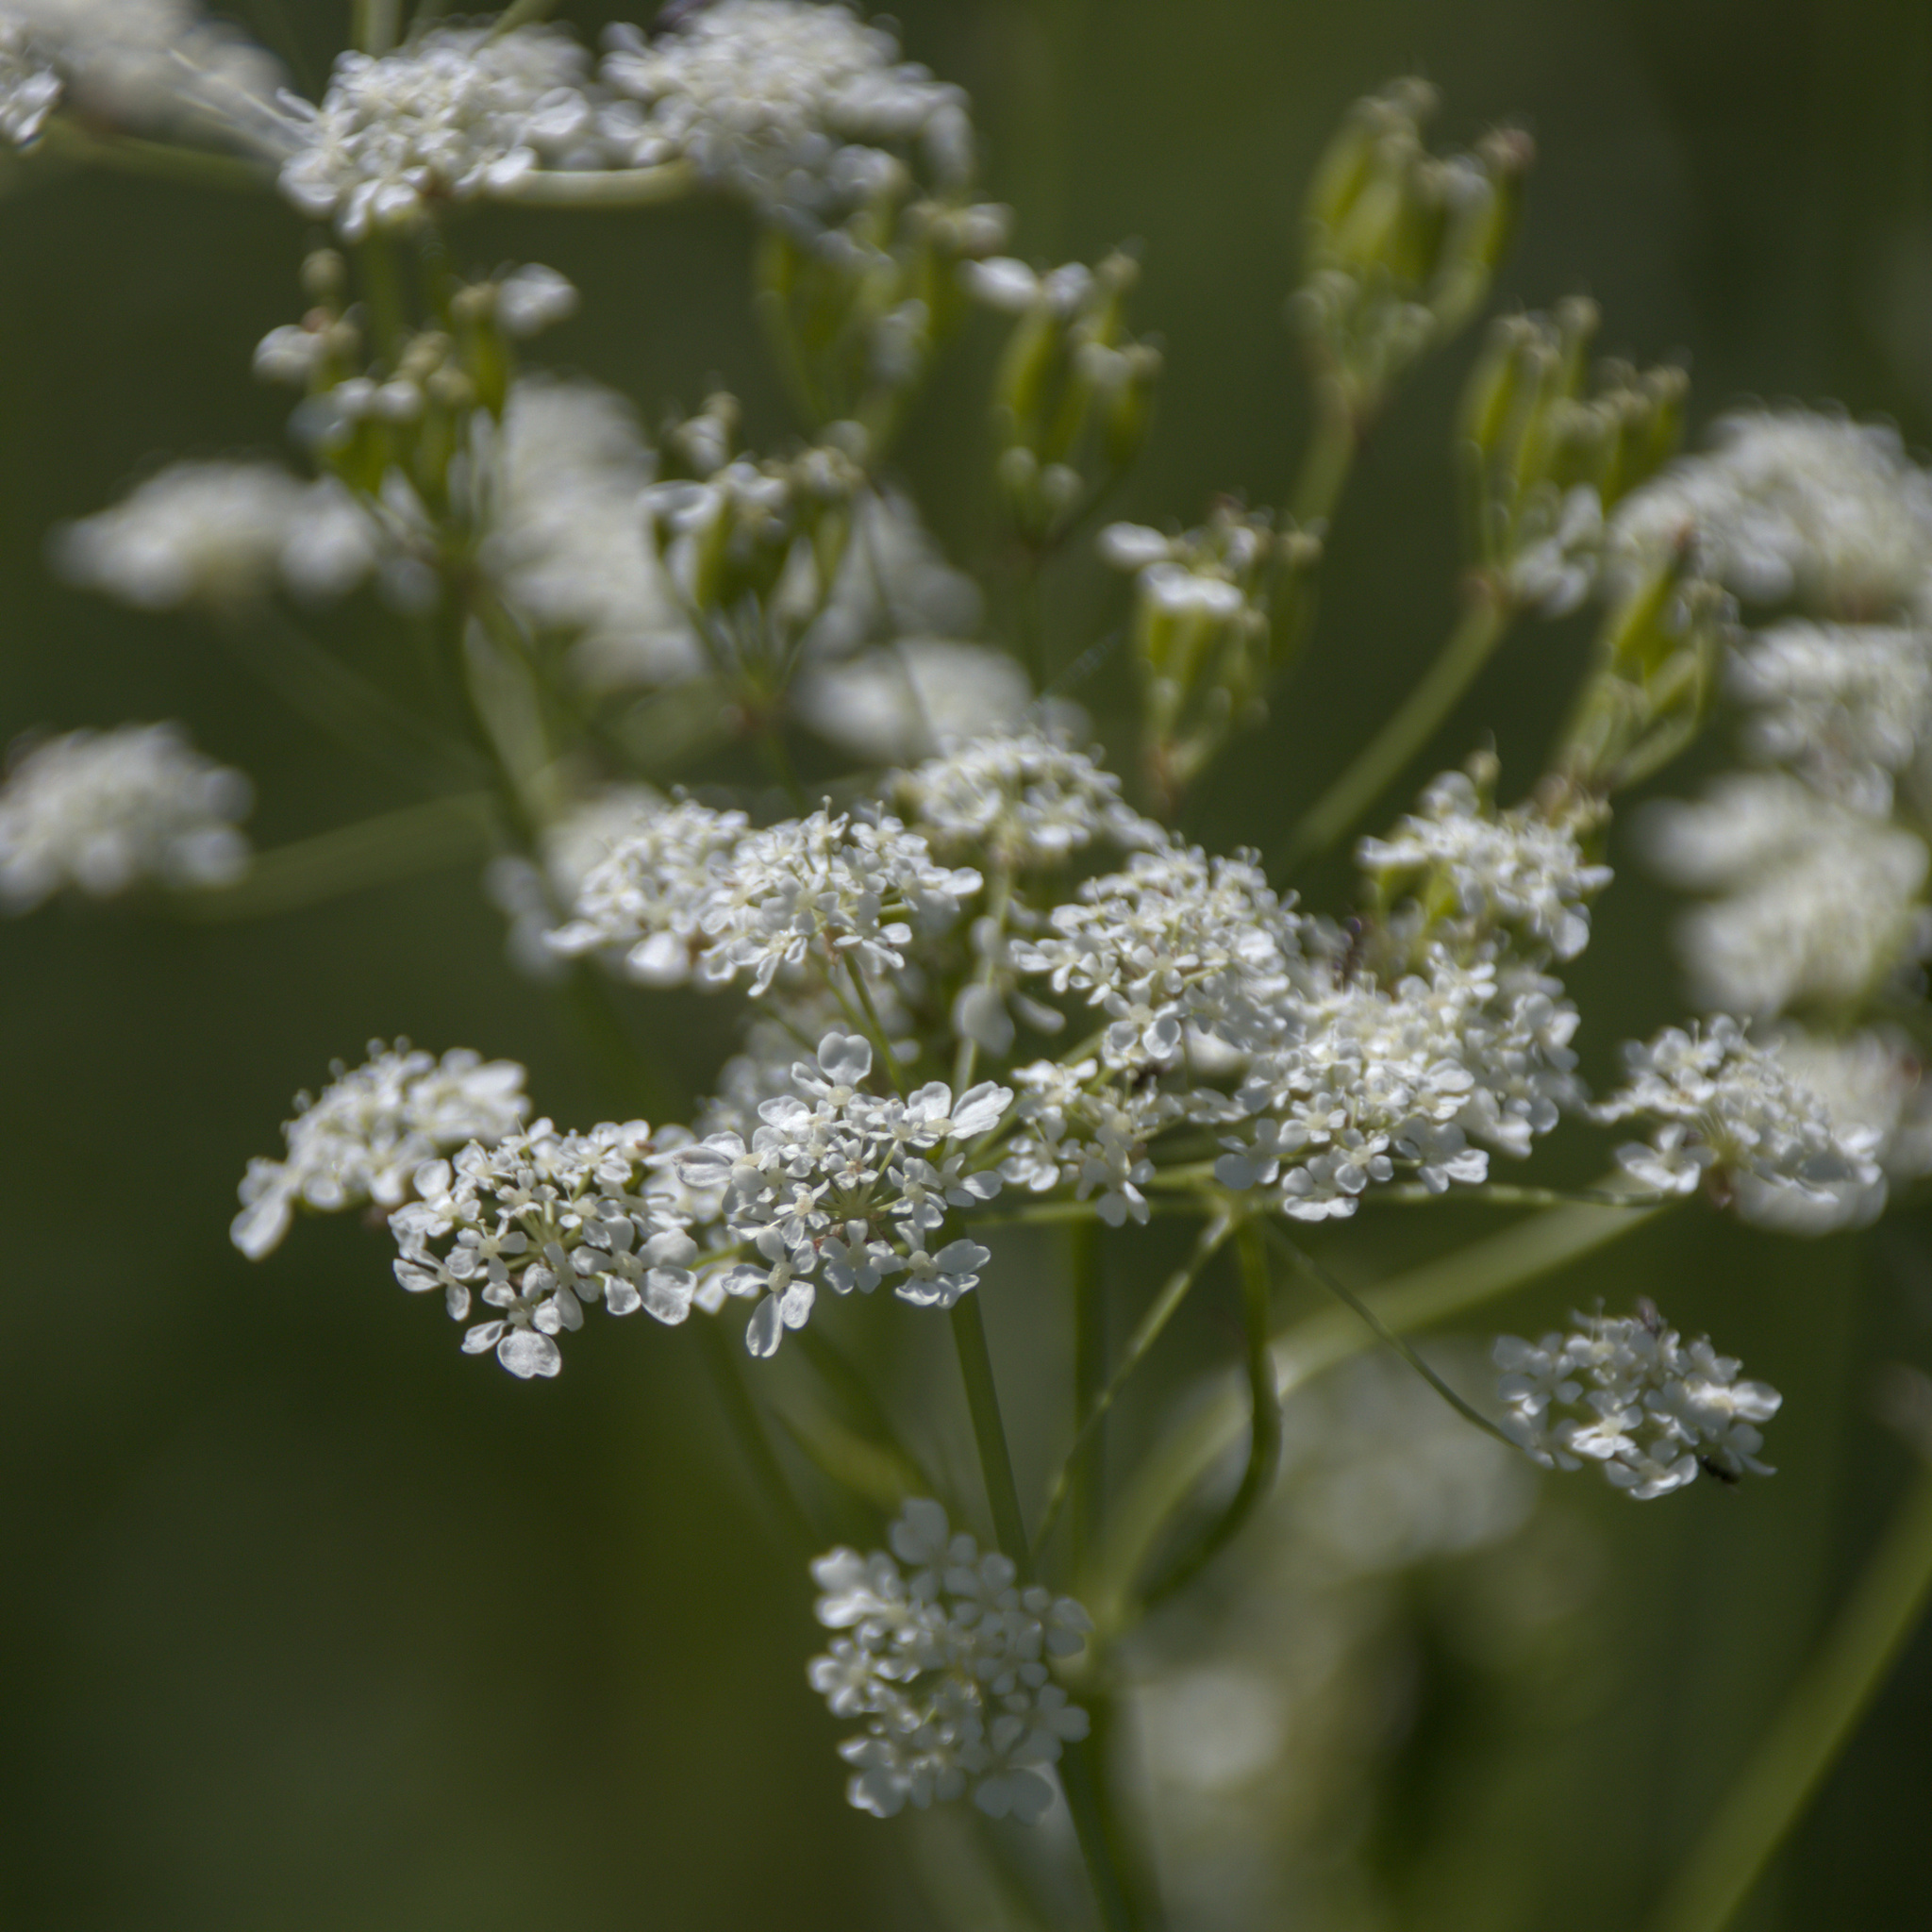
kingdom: Plantae
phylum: Tracheophyta
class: Magnoliopsida
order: Apiales
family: Apiaceae
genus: Anthriscus
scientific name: Anthriscus sylvestris
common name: Cow parsley
